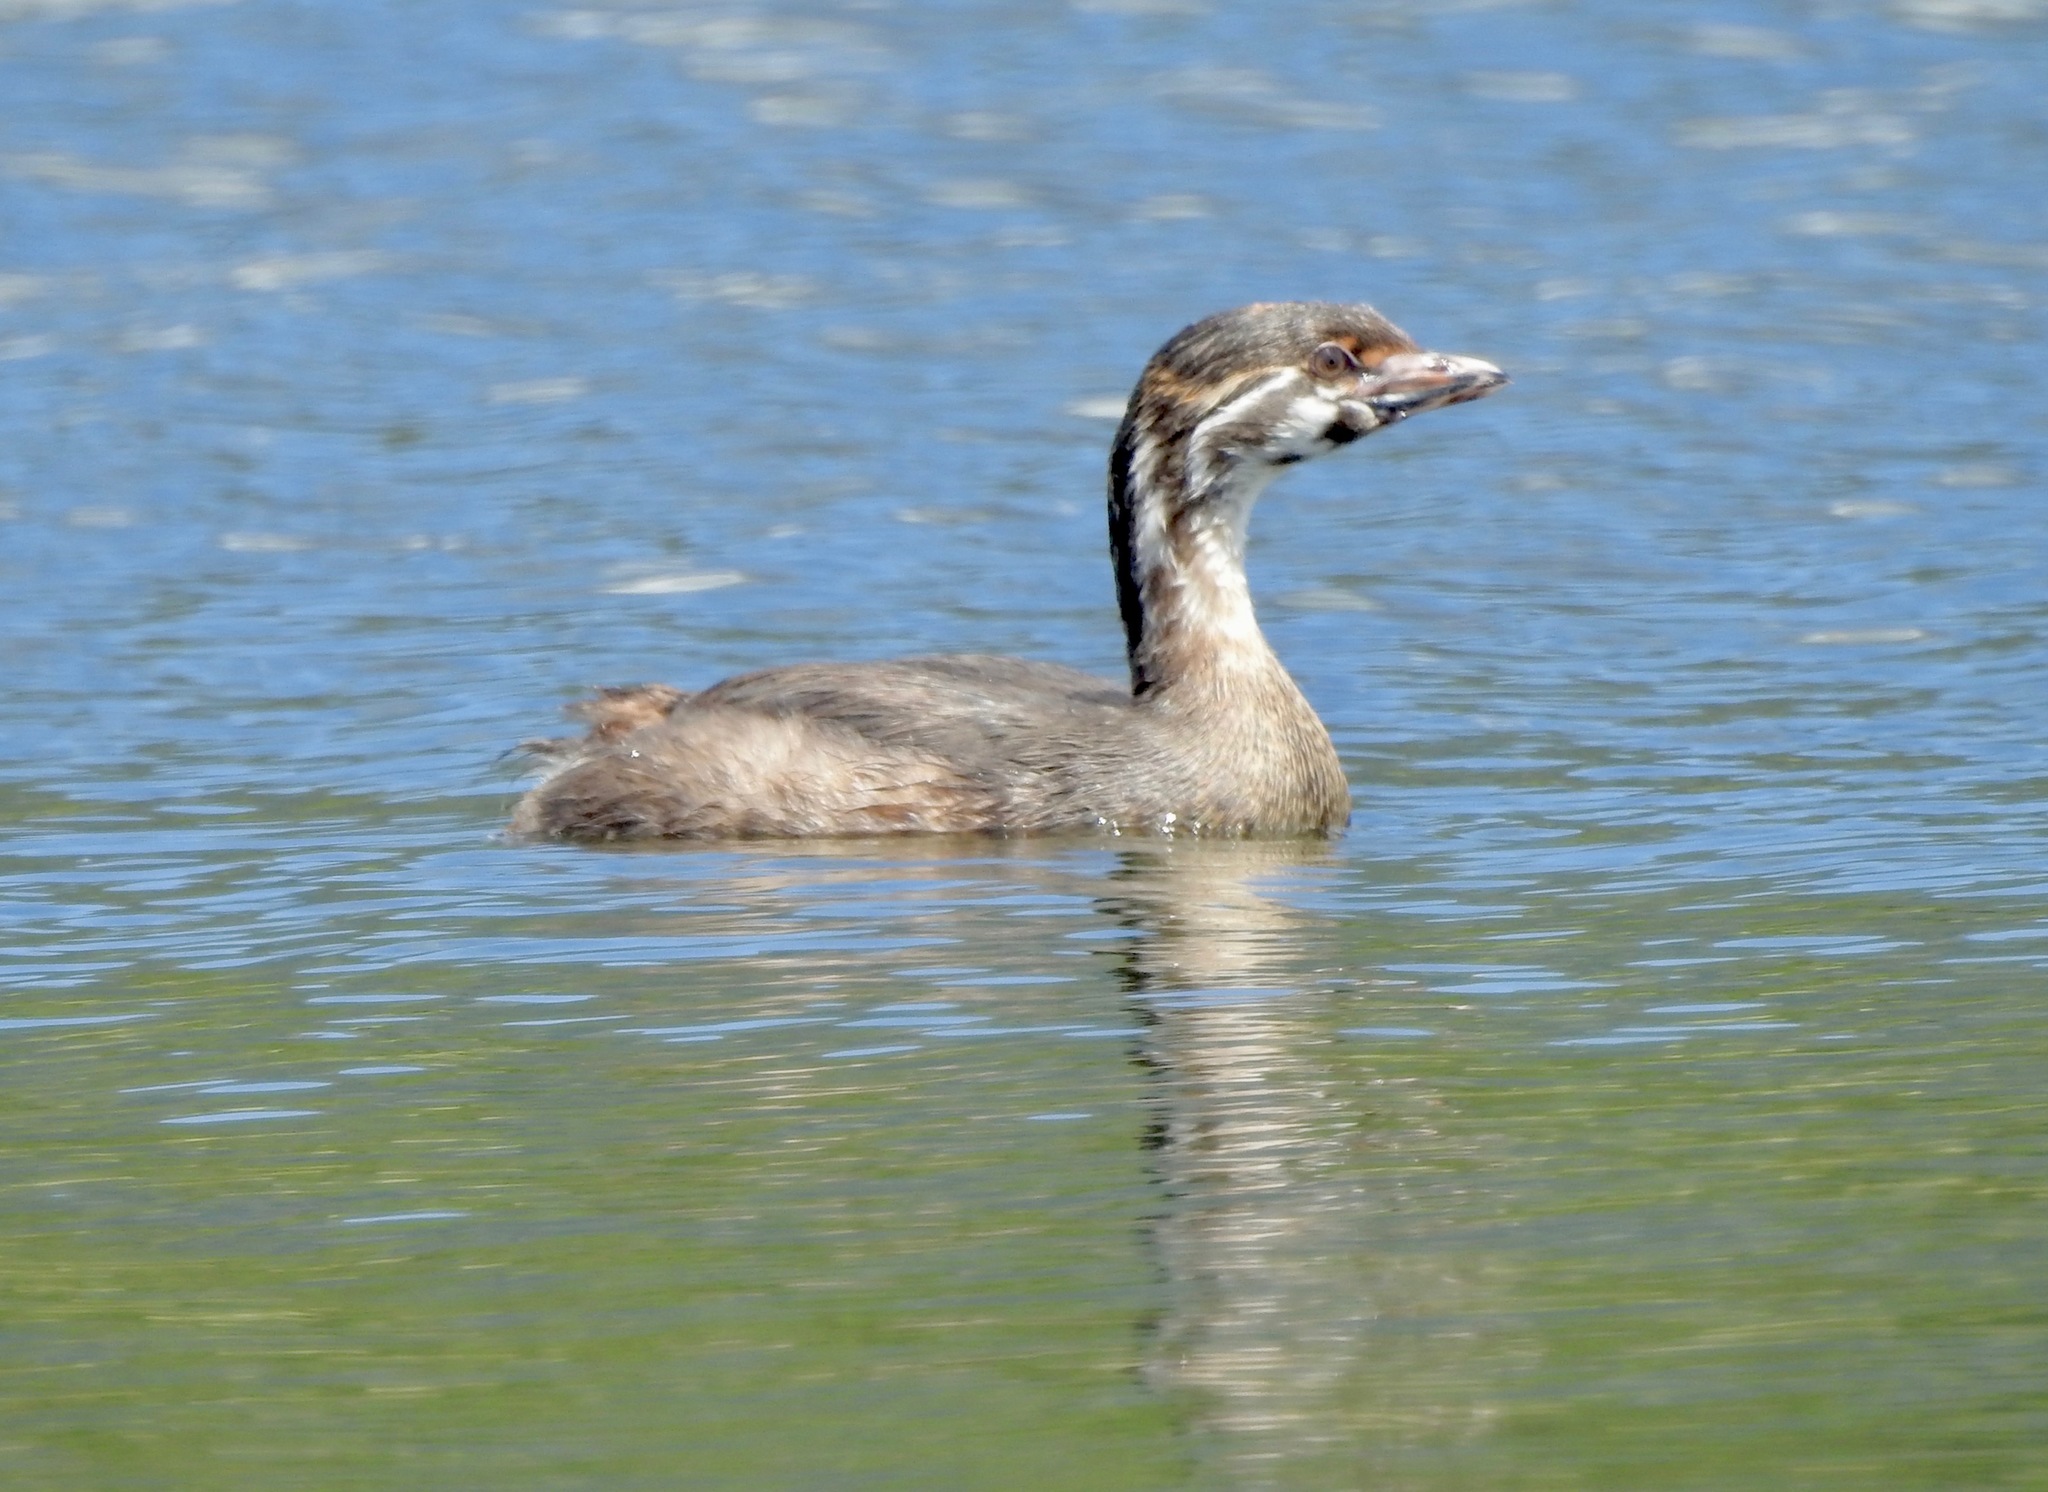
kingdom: Animalia
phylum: Chordata
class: Aves
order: Podicipediformes
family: Podicipedidae
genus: Podilymbus
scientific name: Podilymbus podiceps
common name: Pied-billed grebe
